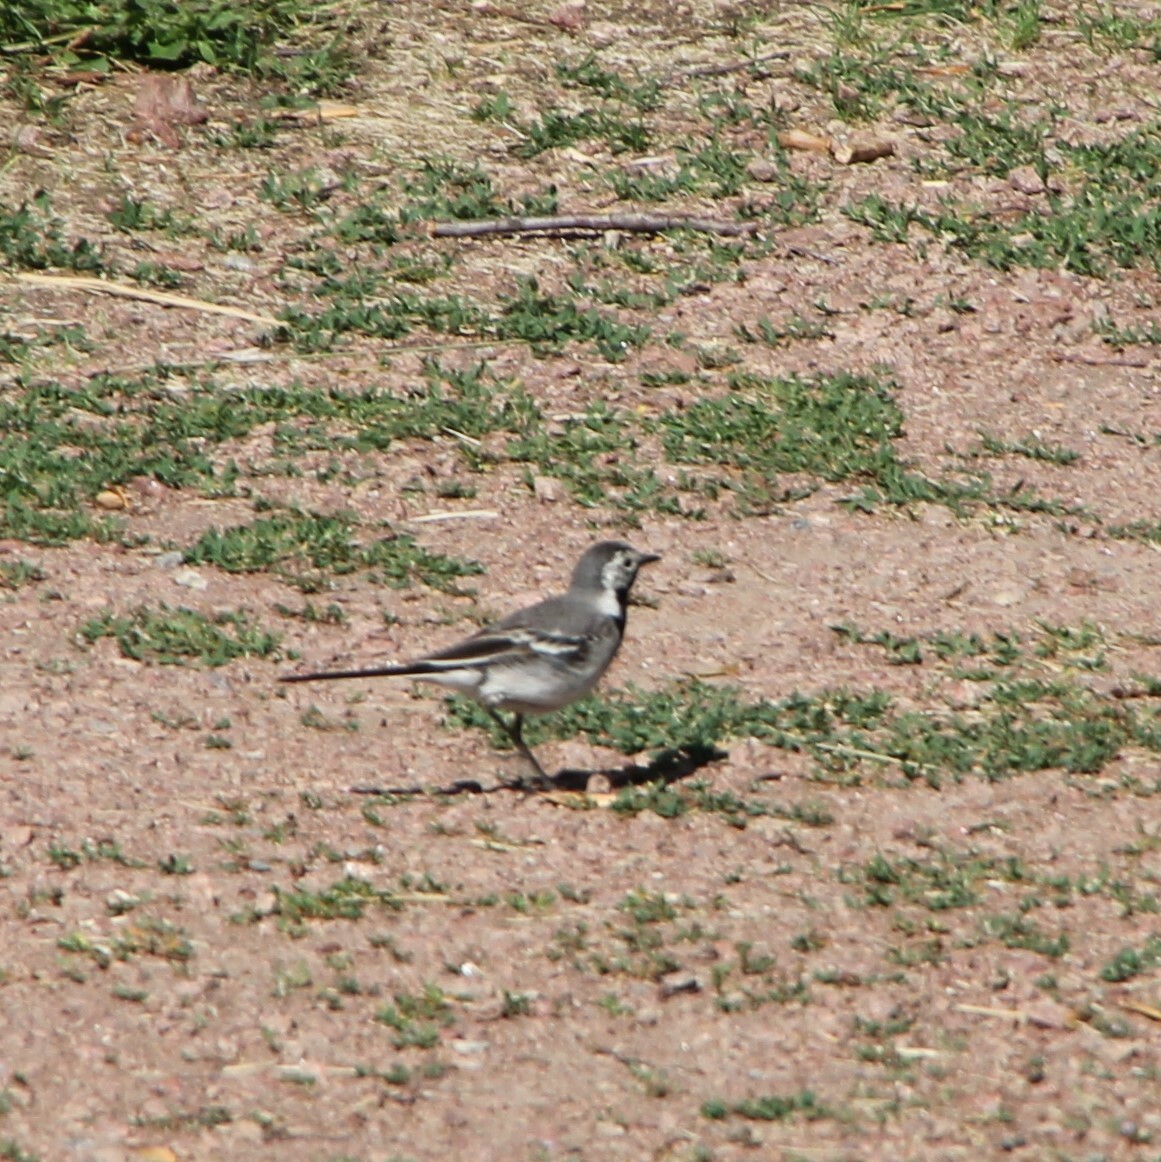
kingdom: Animalia
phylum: Chordata
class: Aves
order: Passeriformes
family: Motacillidae
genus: Motacilla
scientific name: Motacilla alba
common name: White wagtail
